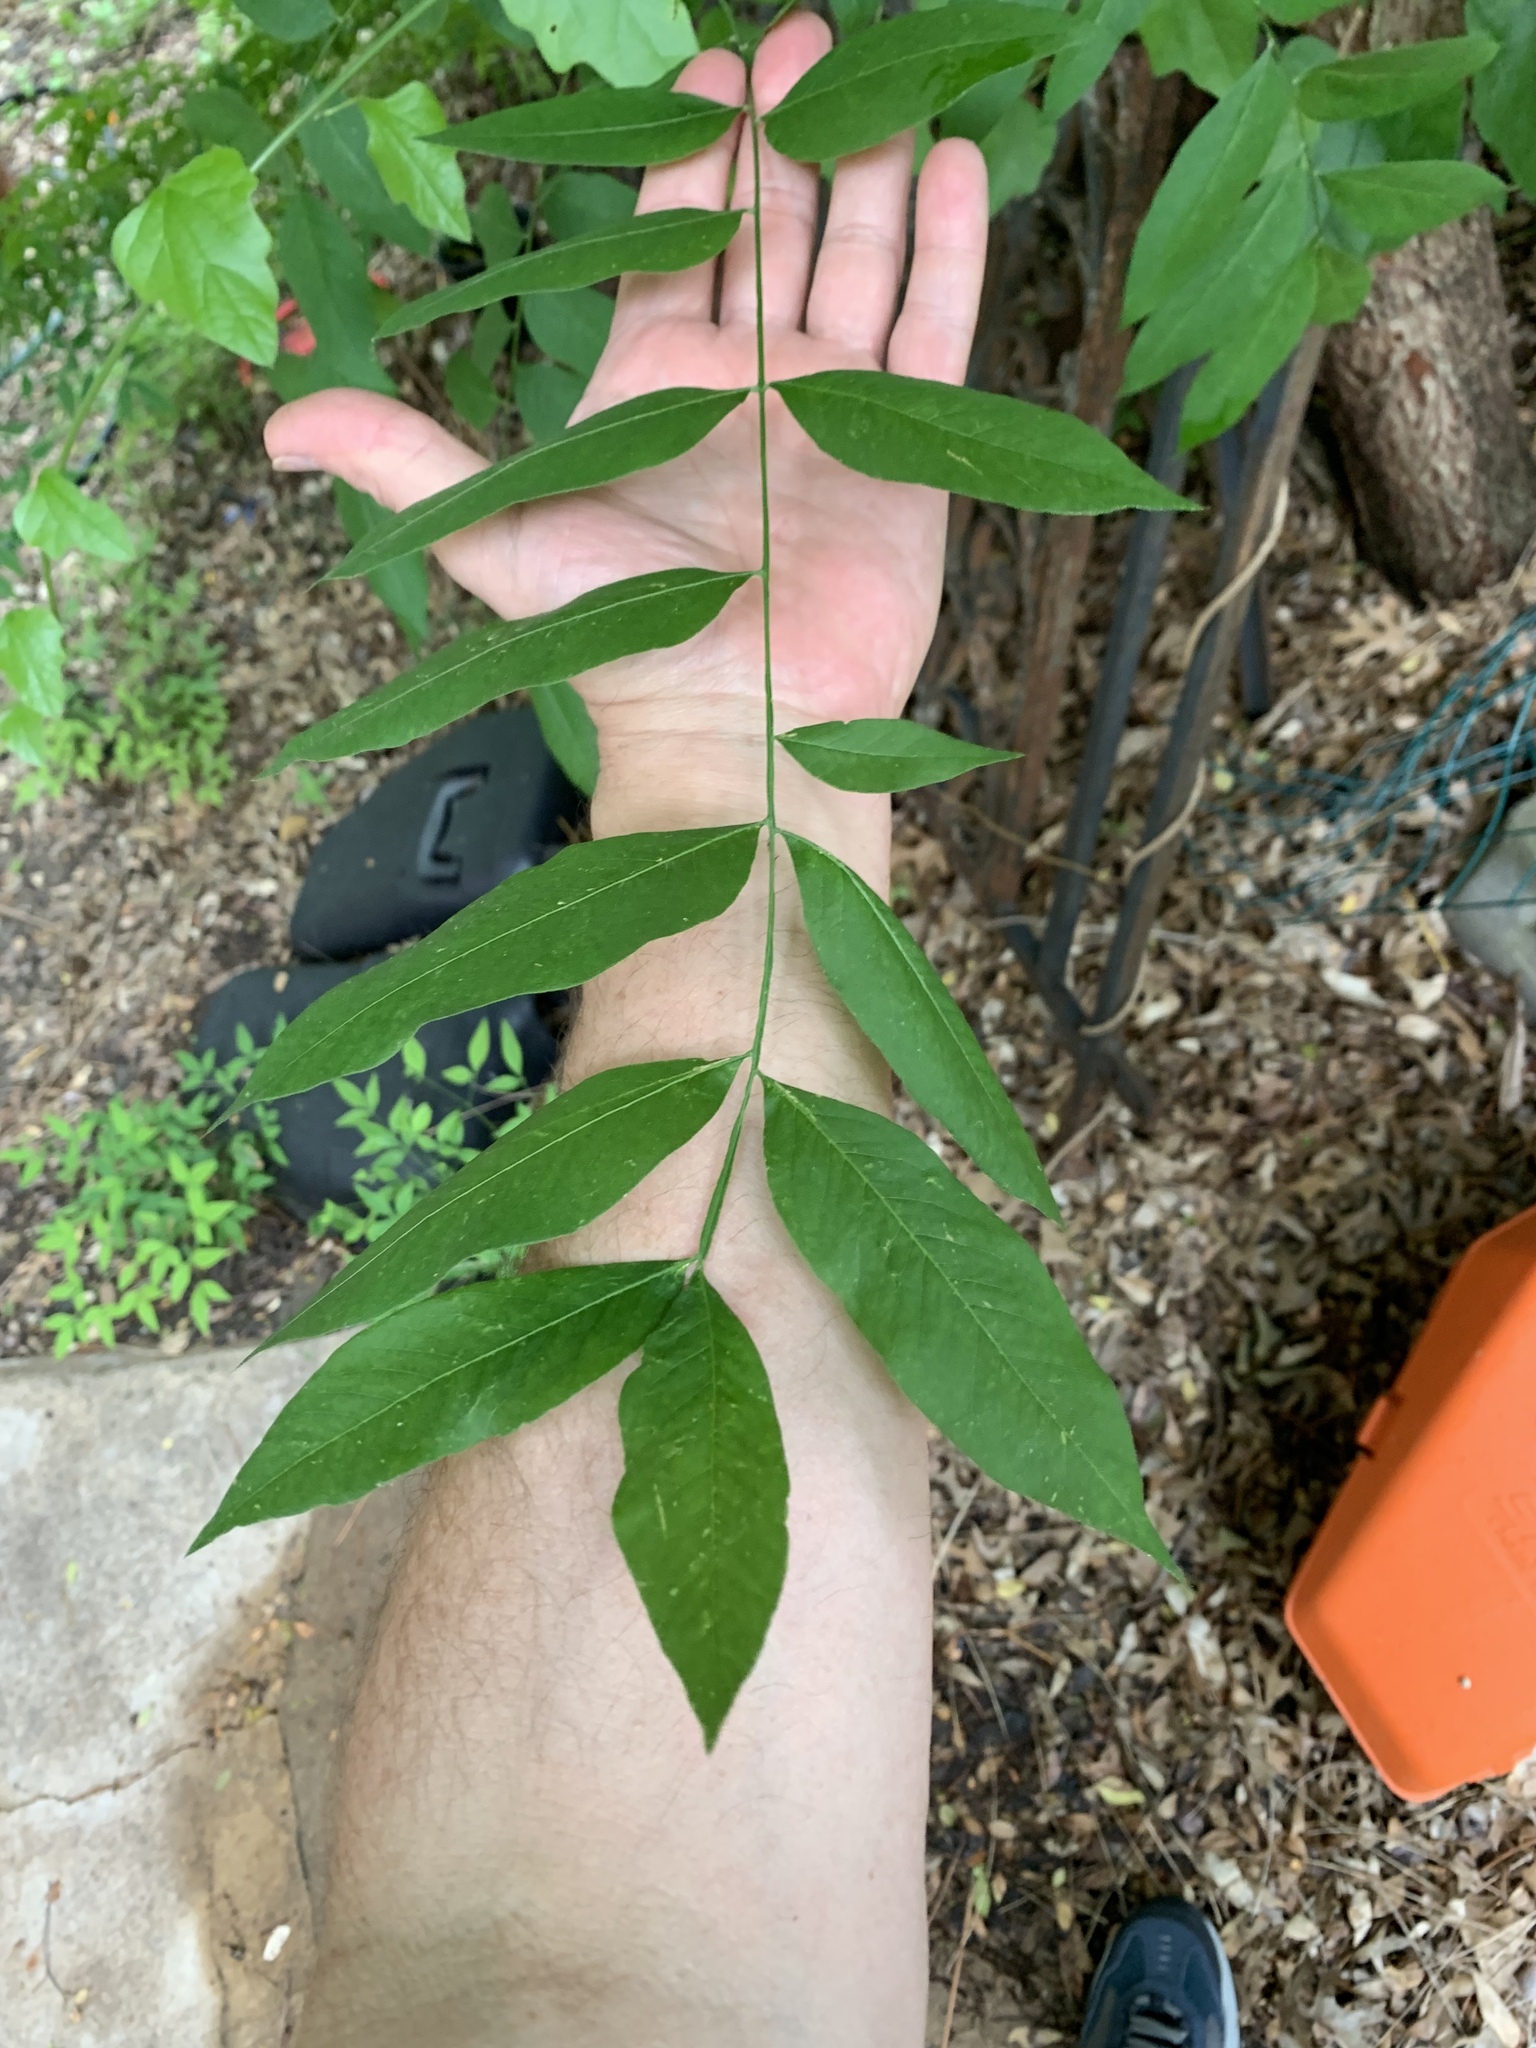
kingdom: Plantae
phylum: Tracheophyta
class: Magnoliopsida
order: Sapindales
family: Sapindaceae
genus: Sapindus
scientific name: Sapindus drummondii
